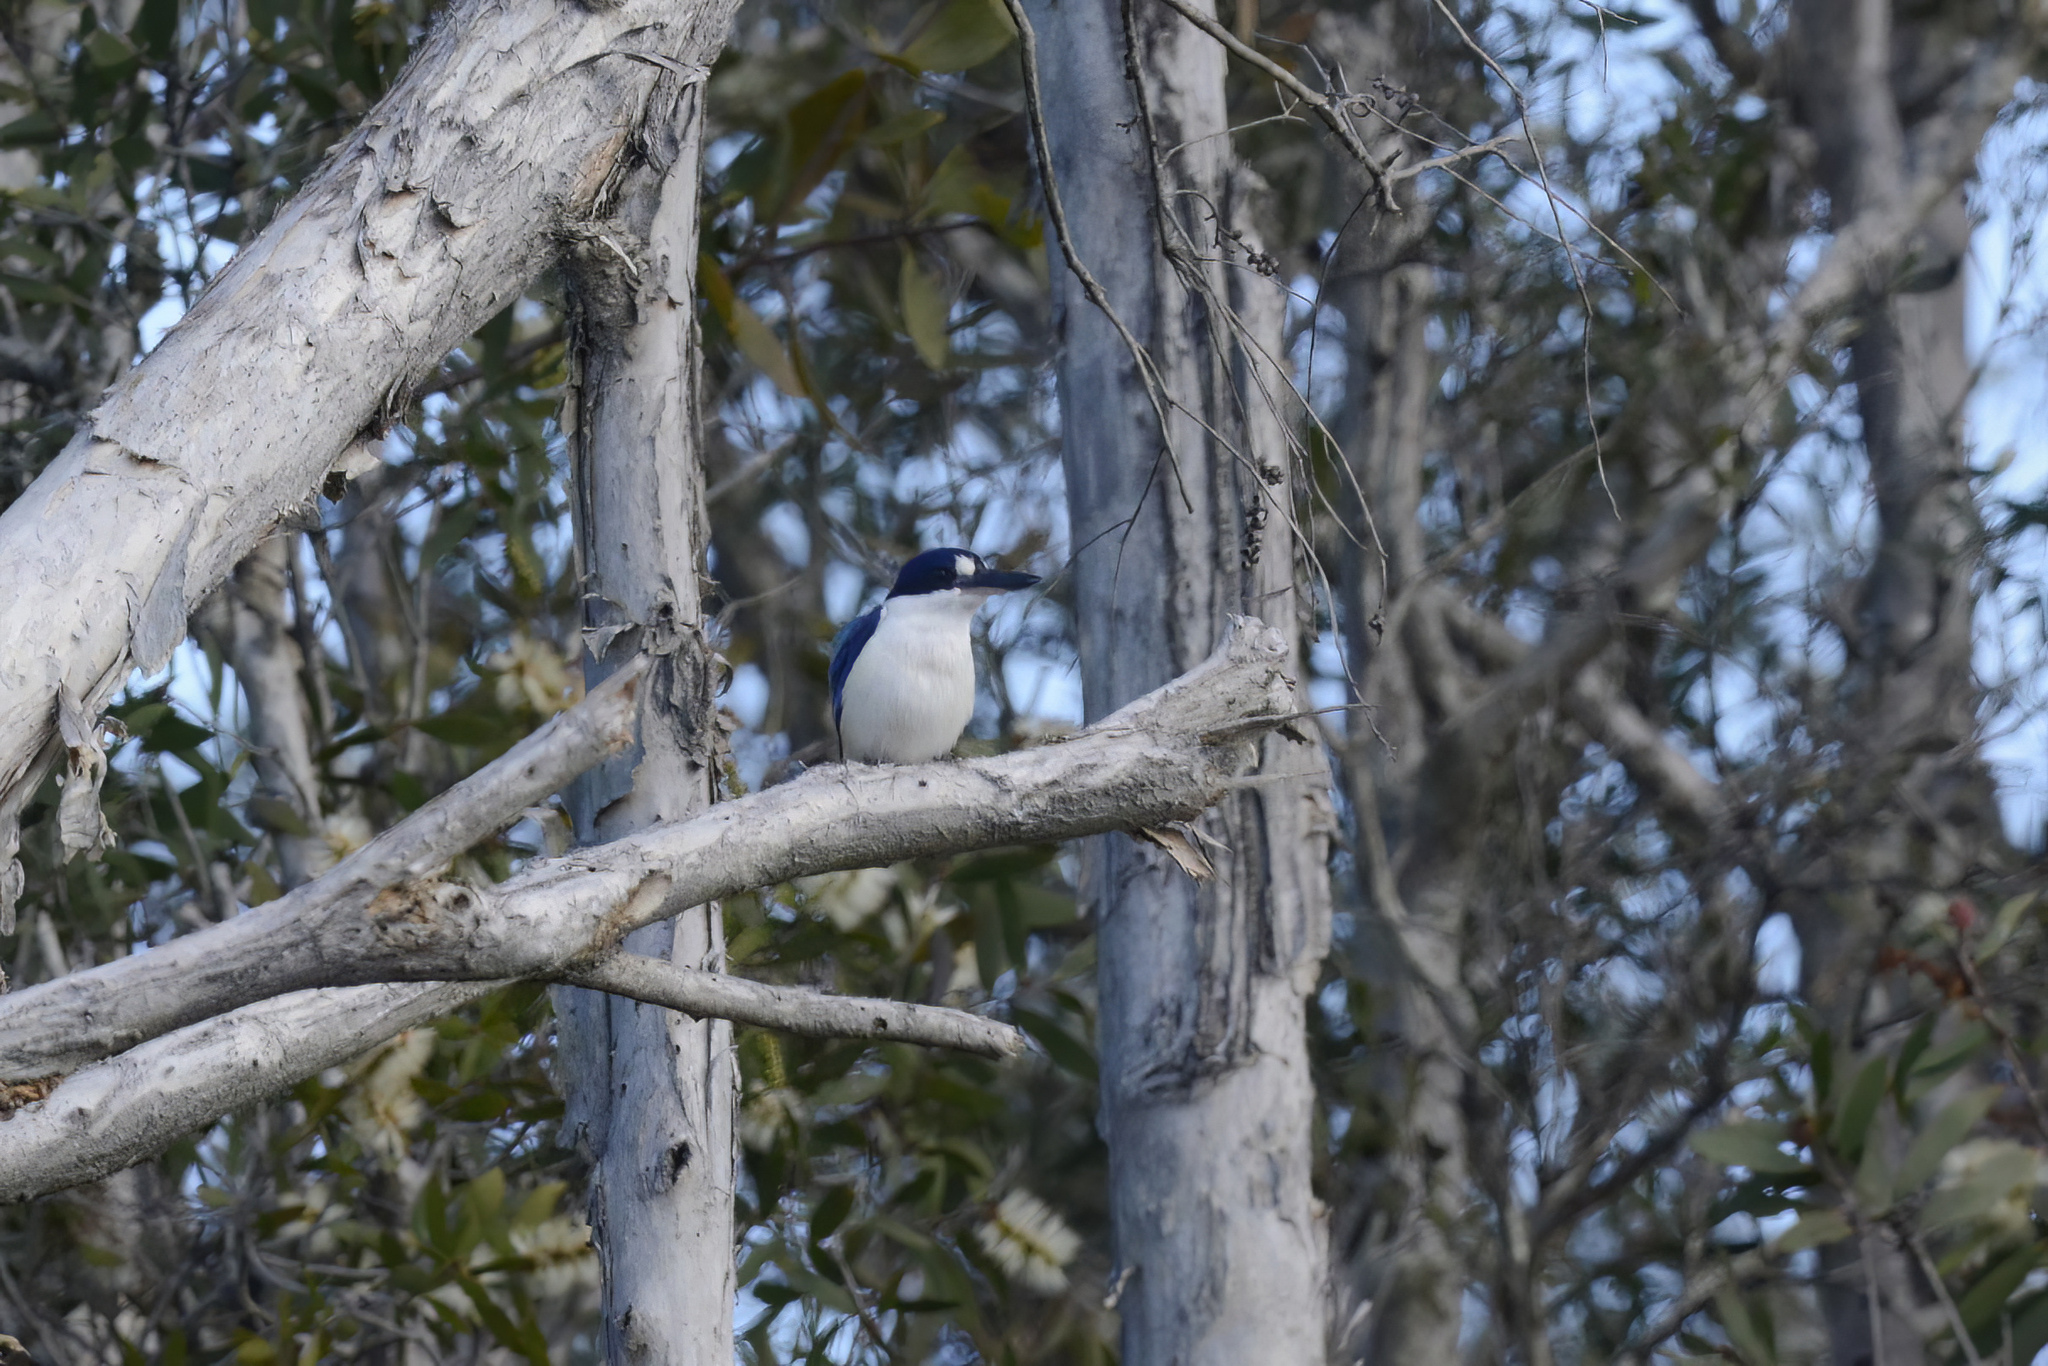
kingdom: Animalia
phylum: Chordata
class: Aves
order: Coraciiformes
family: Alcedinidae
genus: Todiramphus
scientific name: Todiramphus macleayii
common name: Forest kingfisher
